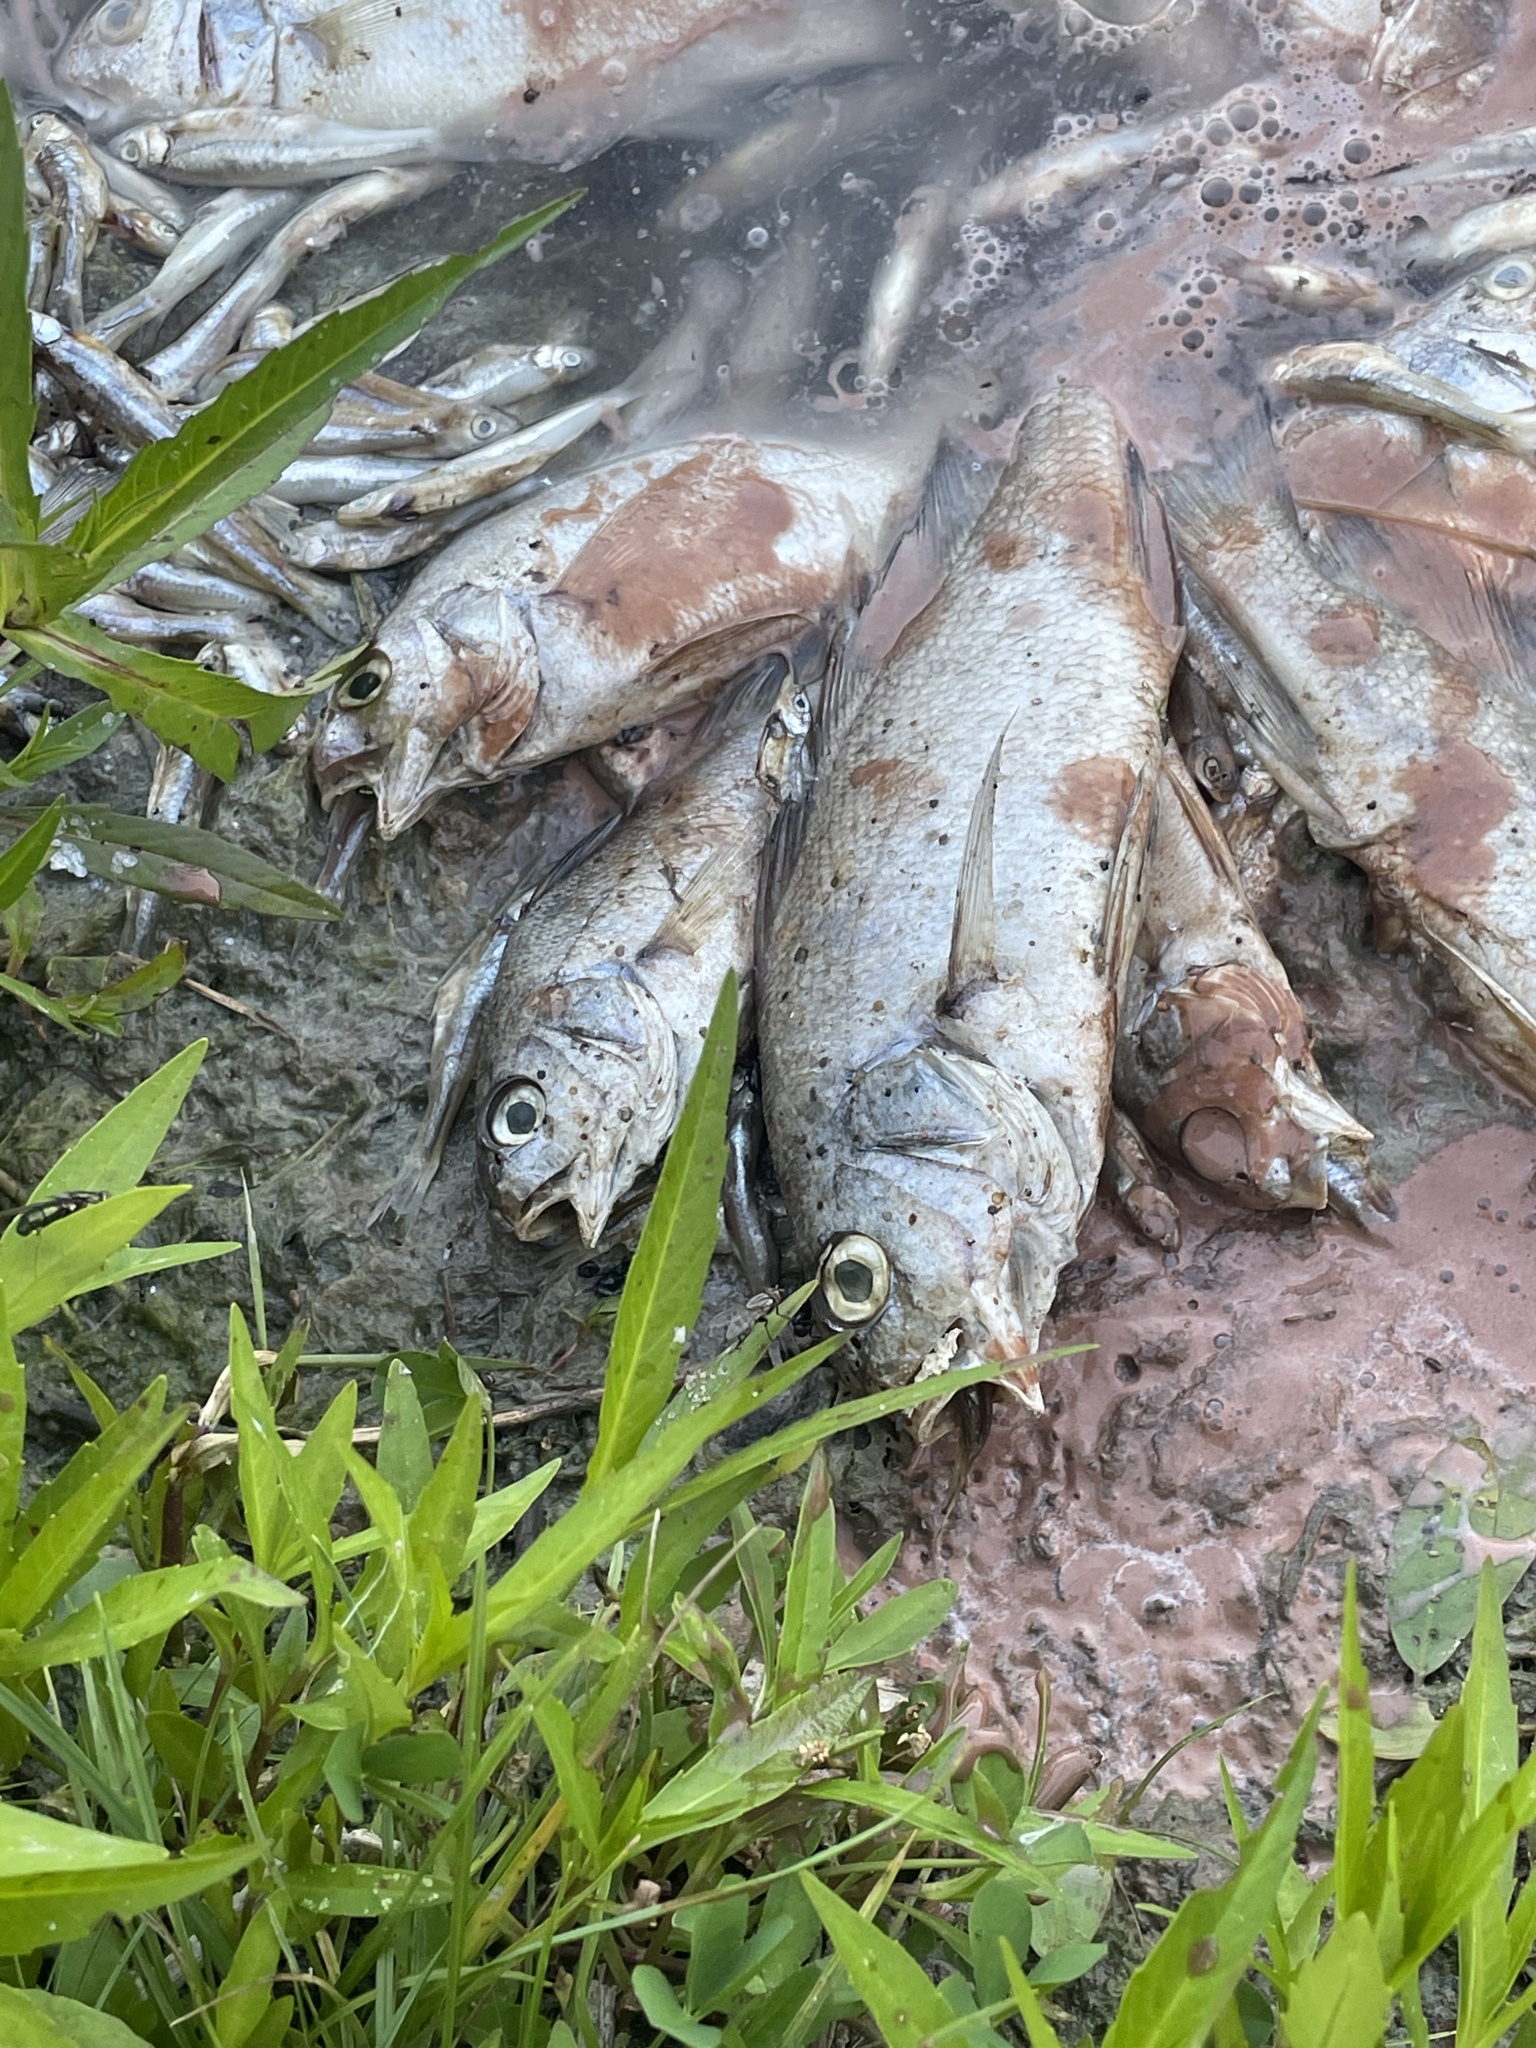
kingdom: Animalia
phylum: Chordata
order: Perciformes
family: Sciaenidae
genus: Aplodinotus
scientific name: Aplodinotus grunniens
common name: Freshwater drum
